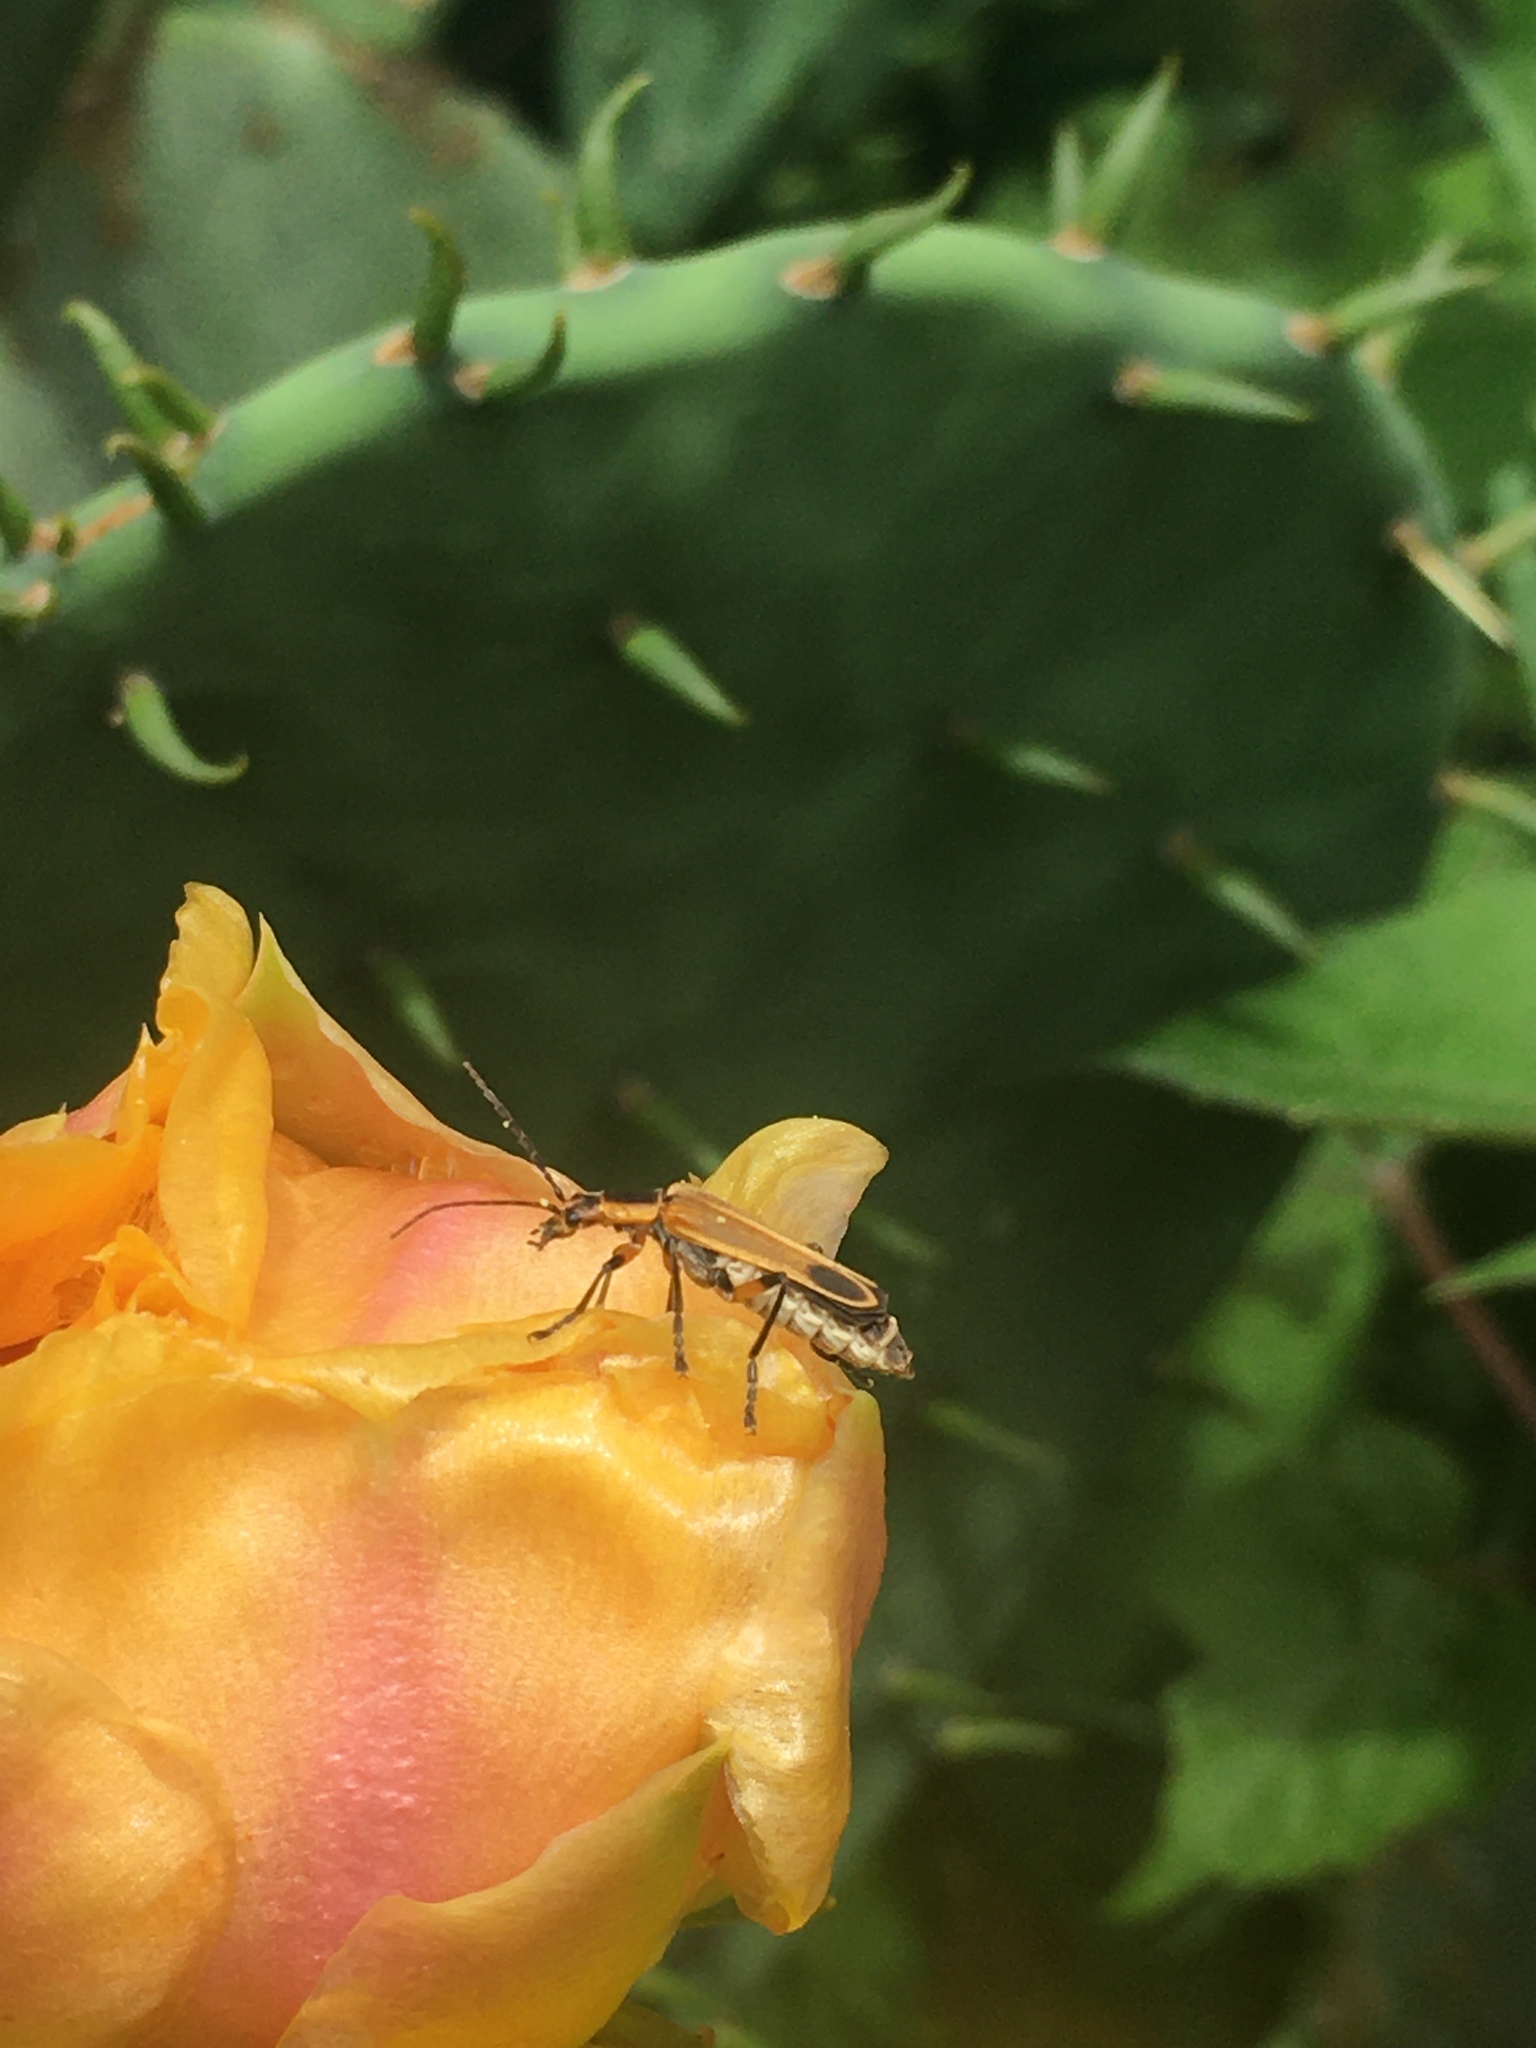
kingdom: Animalia
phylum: Arthropoda
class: Insecta
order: Coleoptera
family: Cantharidae
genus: Chauliognathus
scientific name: Chauliognathus marginatus
